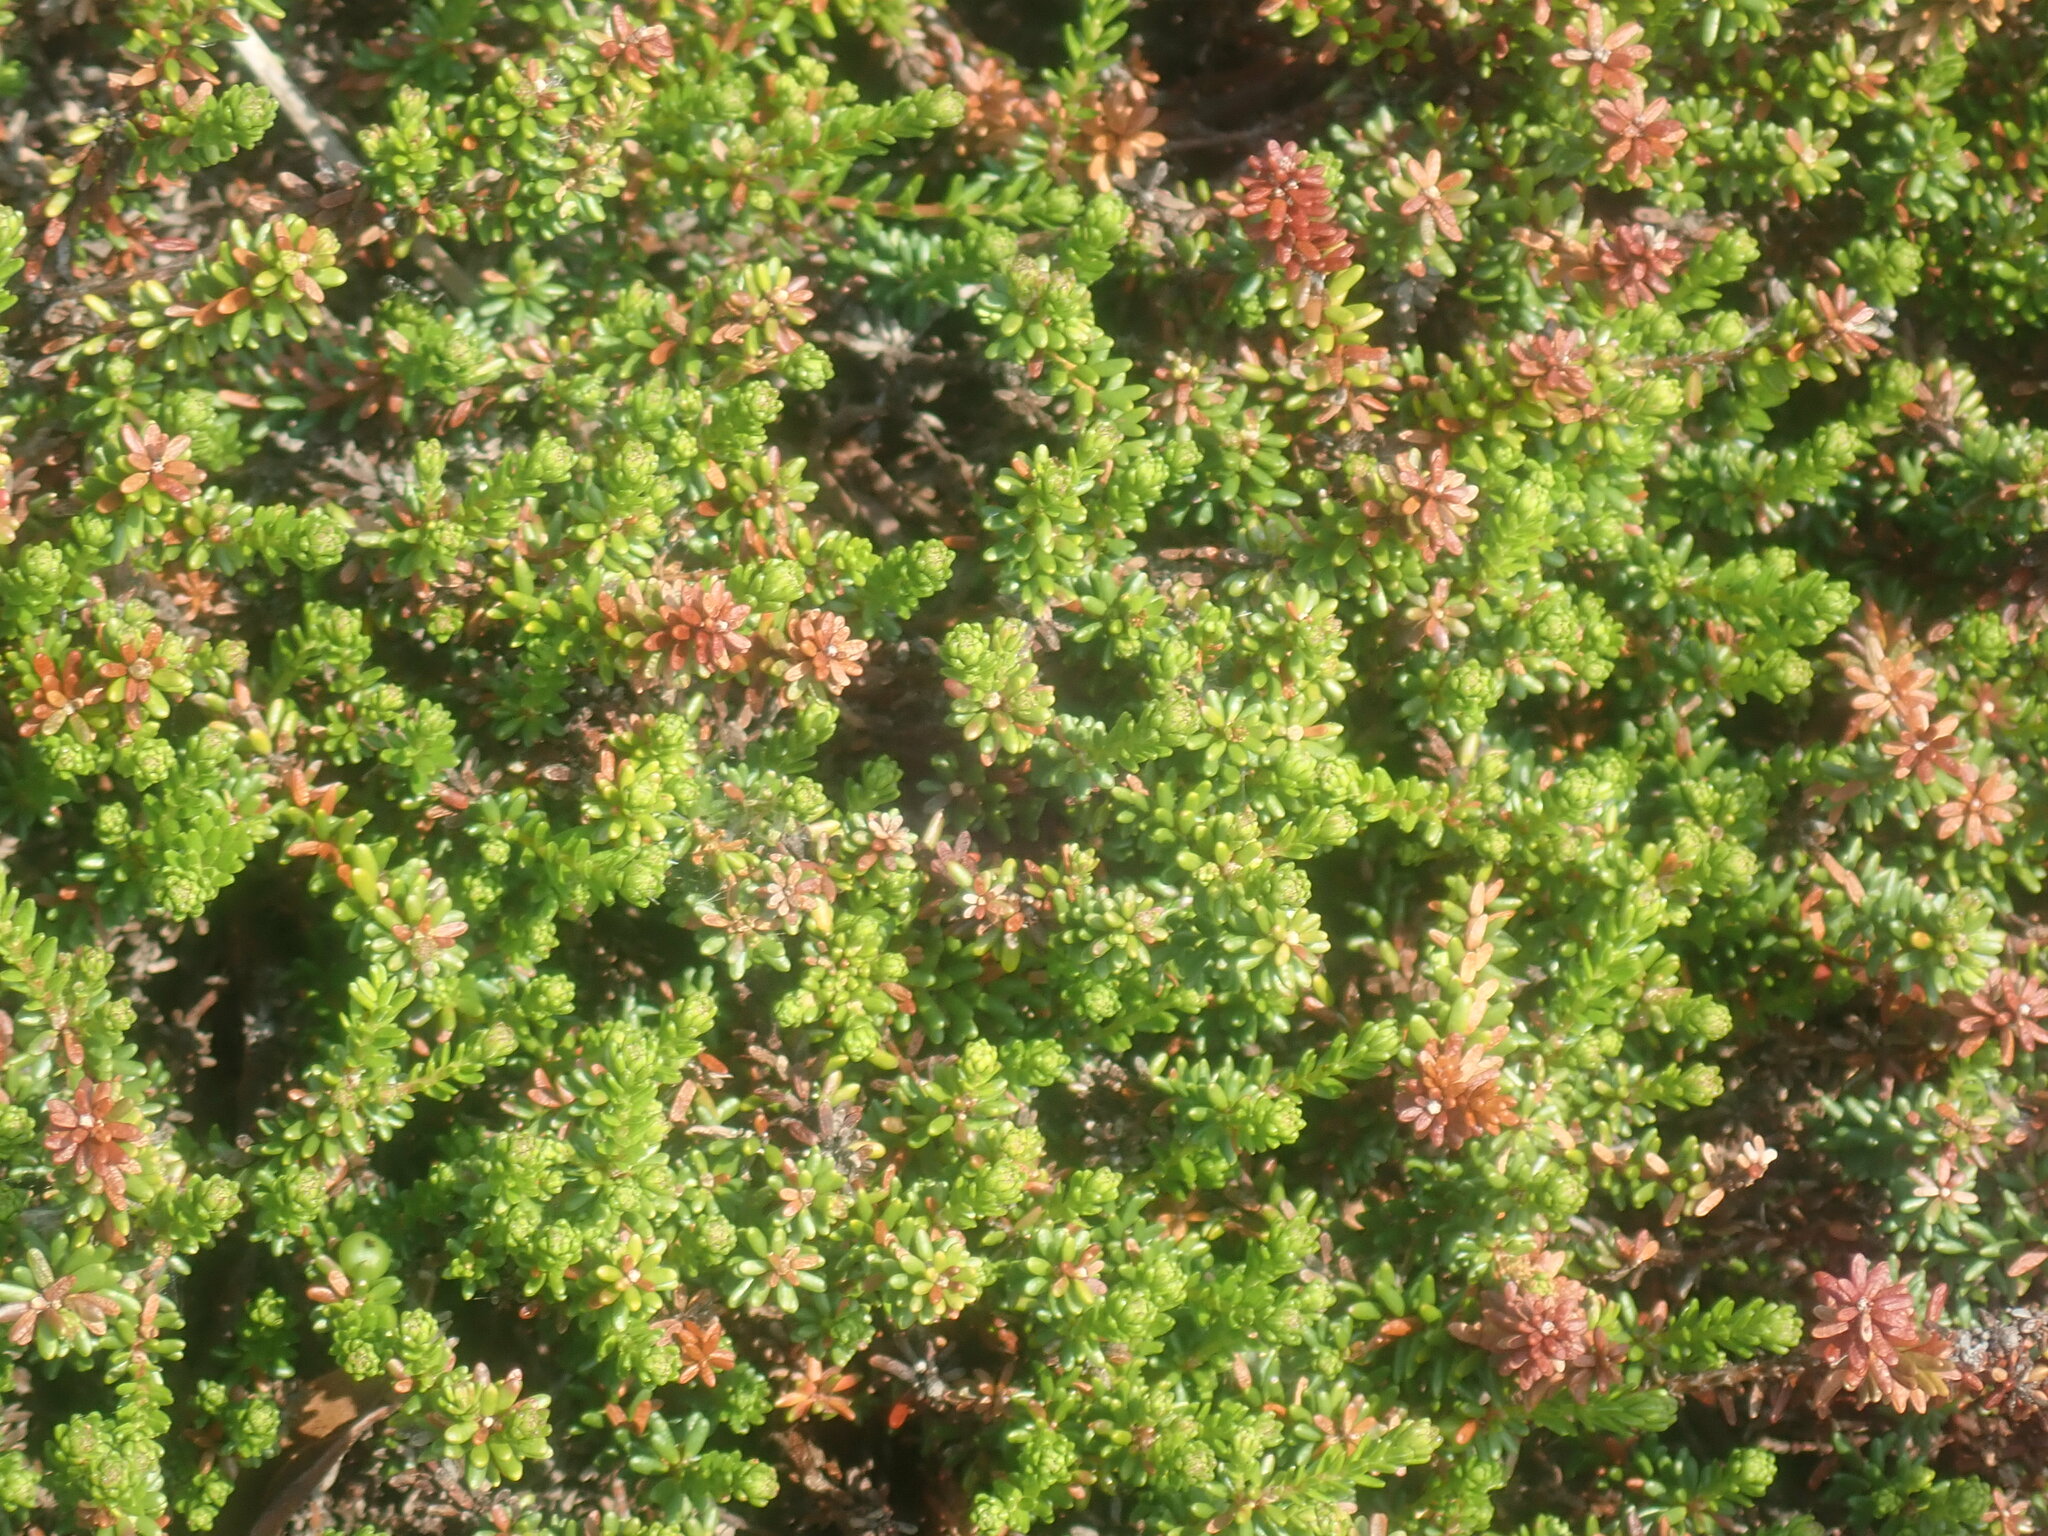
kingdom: Plantae
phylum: Tracheophyta
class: Magnoliopsida
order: Ericales
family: Ericaceae
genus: Empetrum
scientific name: Empetrum nigrum
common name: Black crowberry
